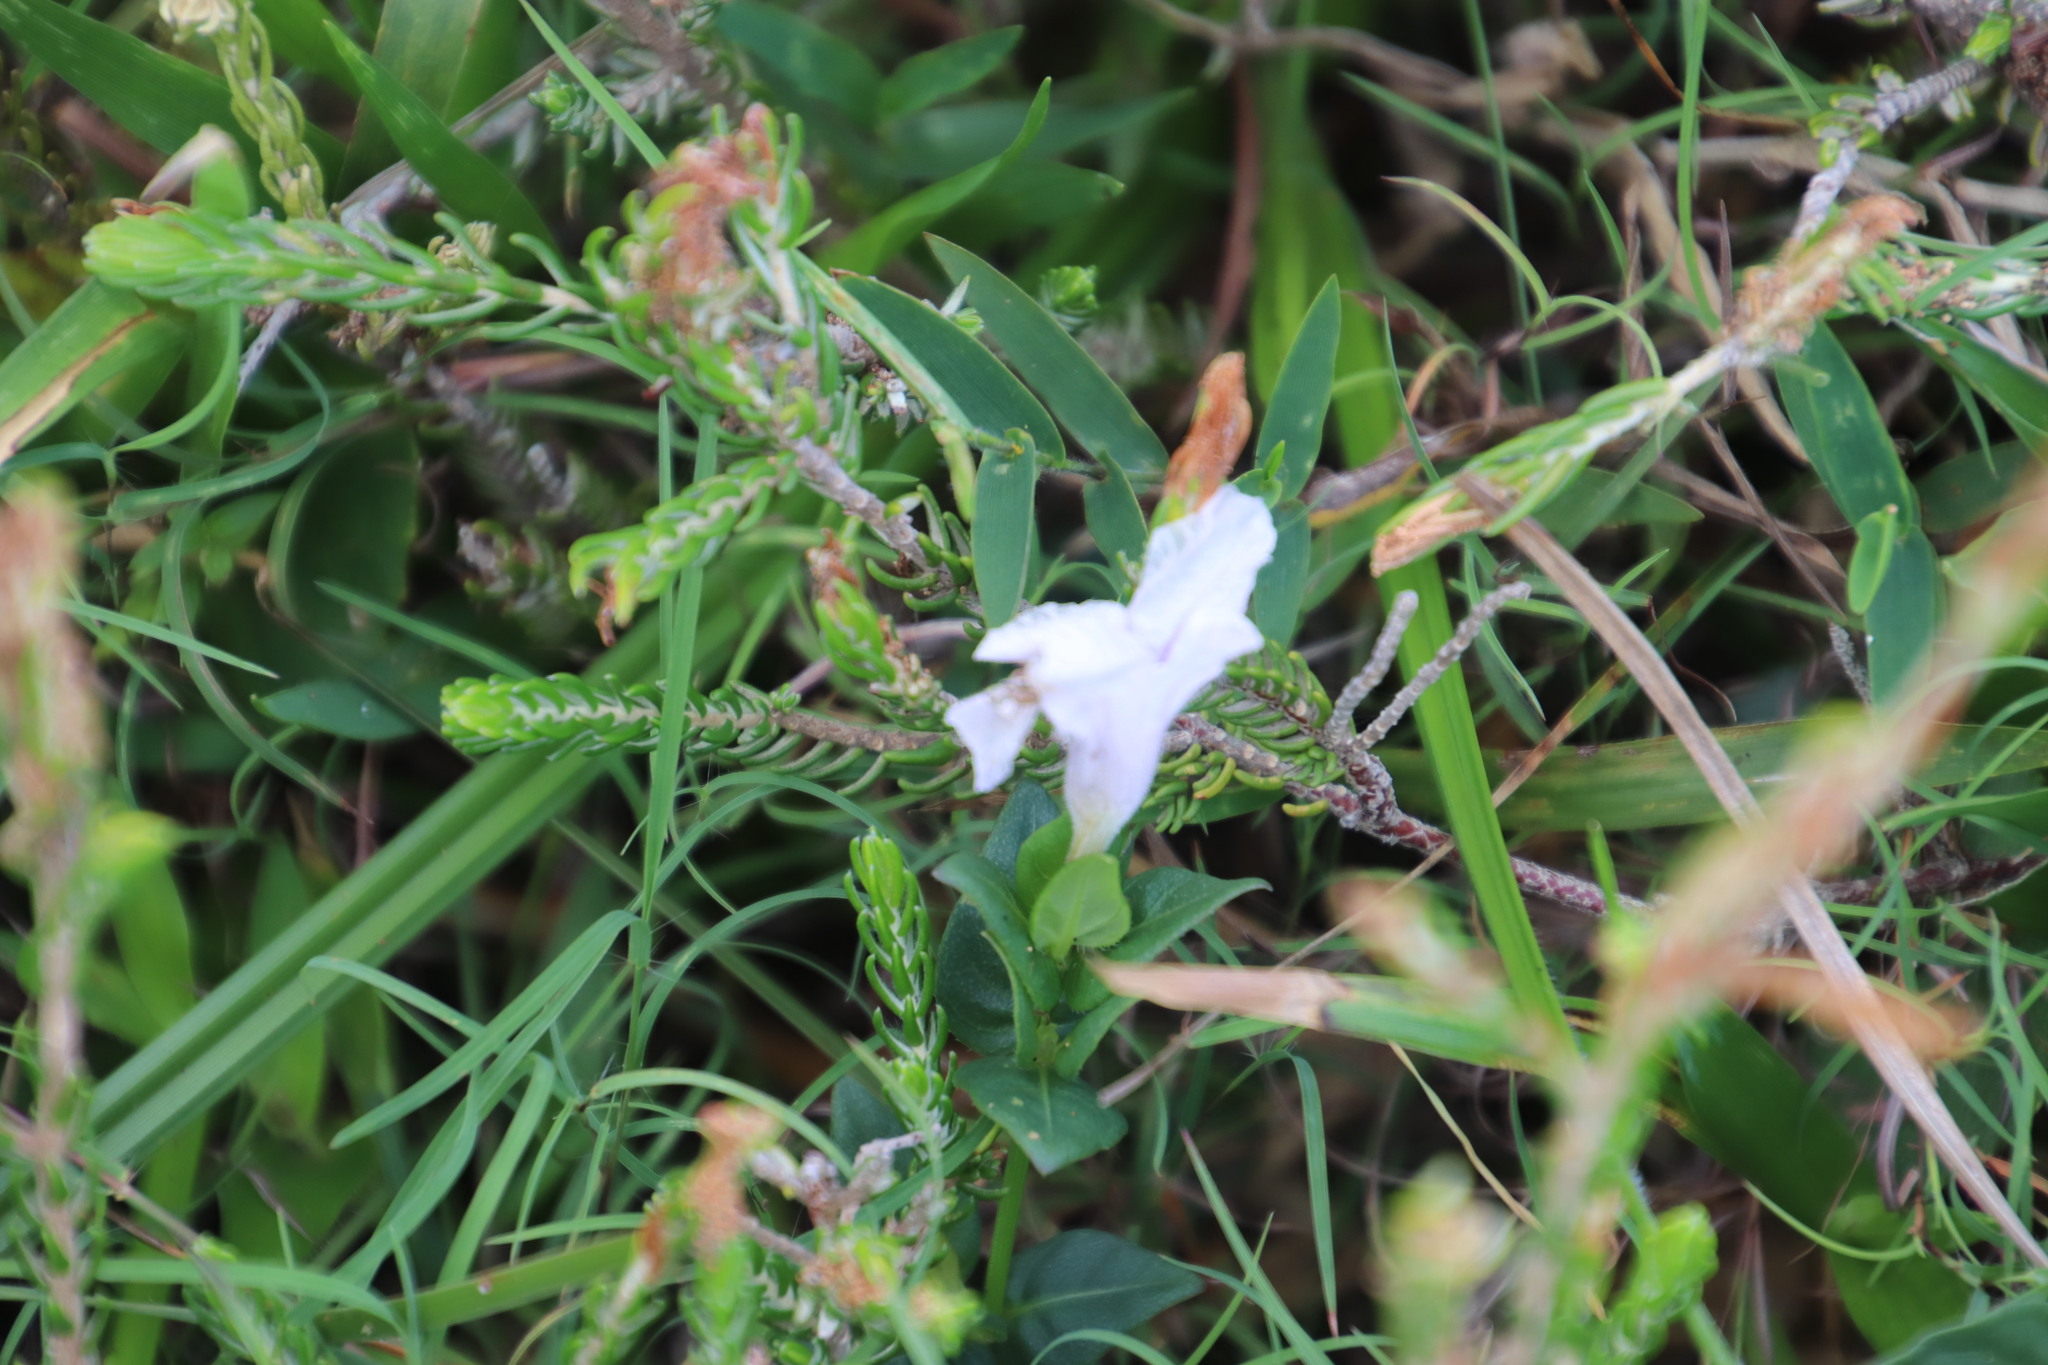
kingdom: Plantae
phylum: Tracheophyta
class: Magnoliopsida
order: Lamiales
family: Acanthaceae
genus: Ruellia
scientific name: Ruellia cordata
